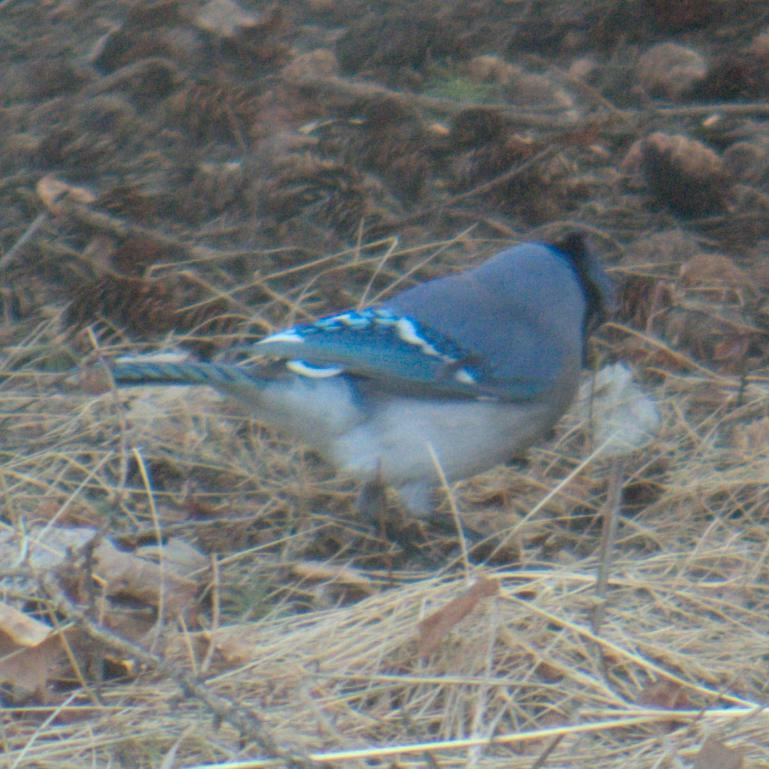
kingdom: Animalia
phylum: Chordata
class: Aves
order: Passeriformes
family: Corvidae
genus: Cyanocitta
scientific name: Cyanocitta cristata
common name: Blue jay
